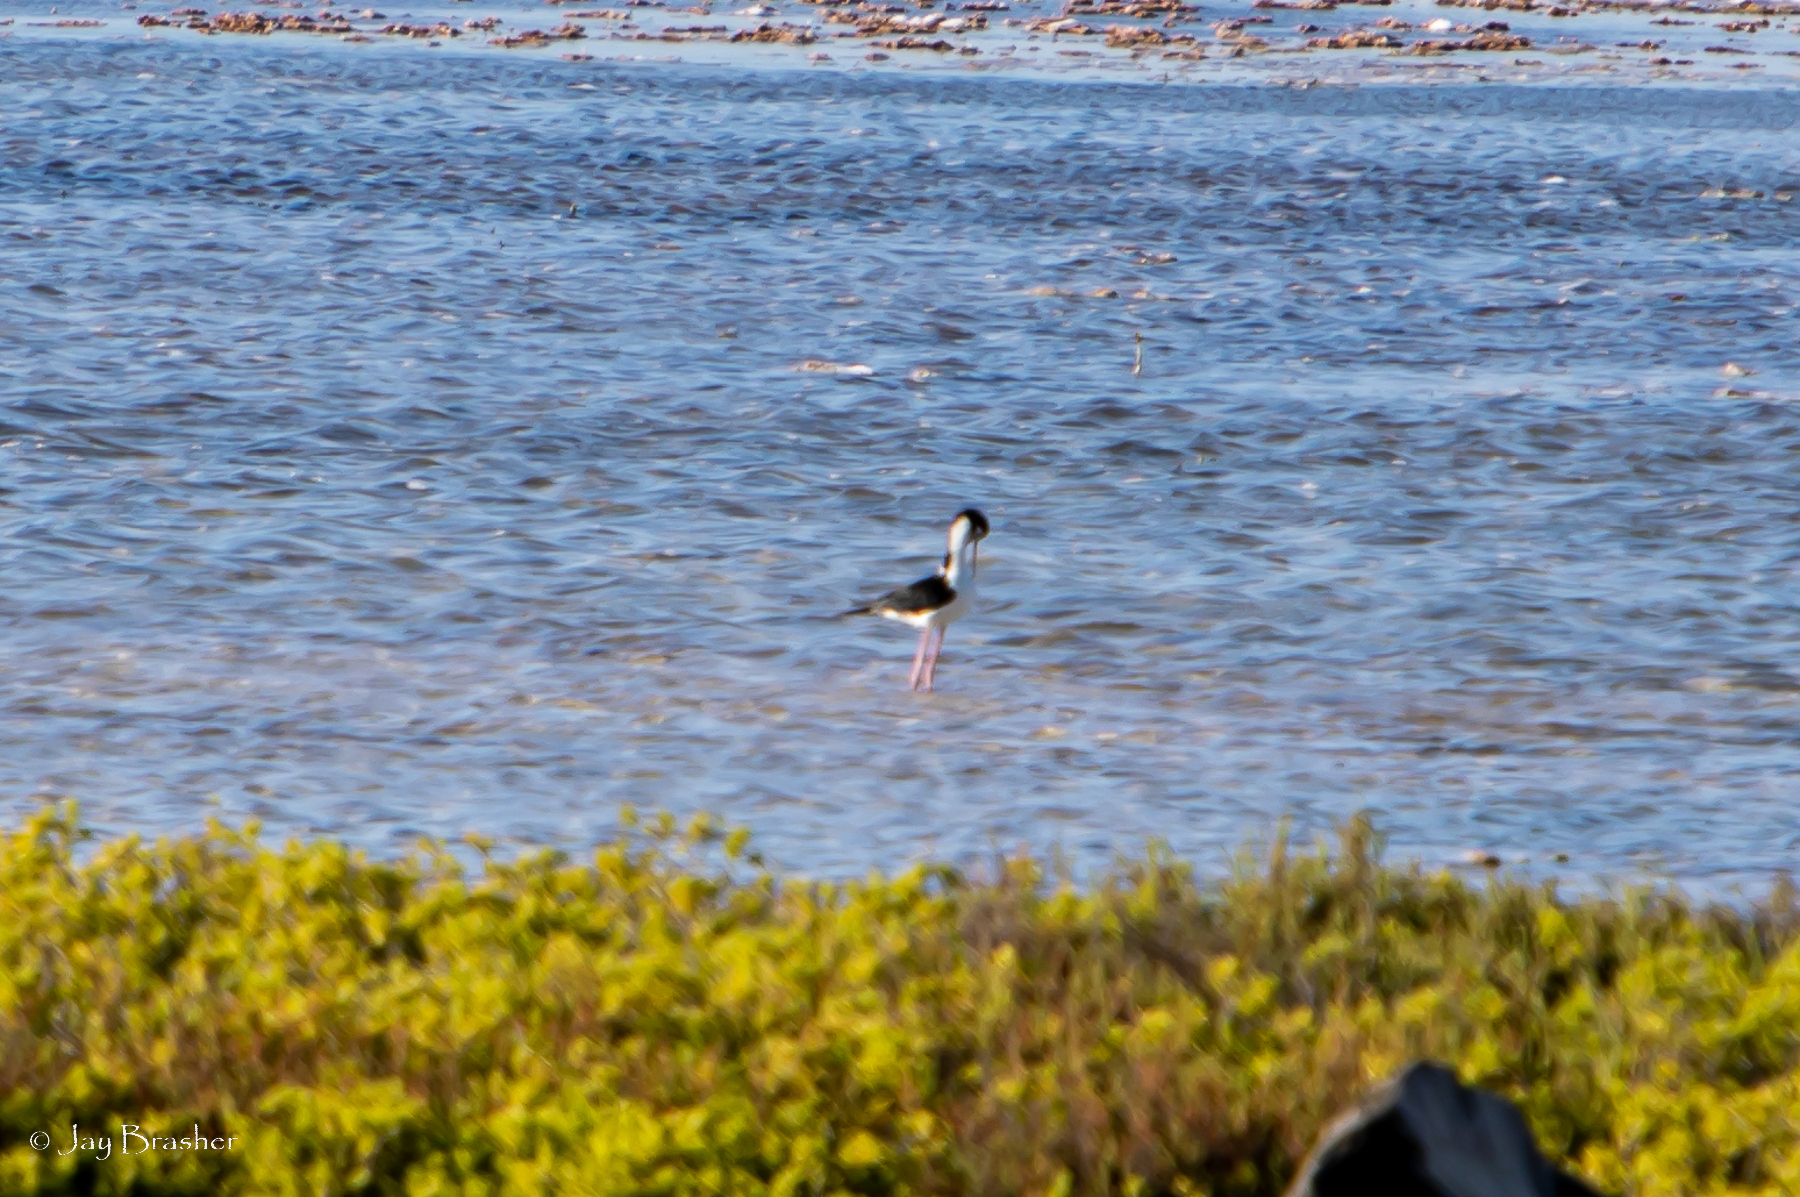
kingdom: Animalia
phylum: Chordata
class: Aves
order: Charadriiformes
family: Recurvirostridae
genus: Himantopus
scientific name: Himantopus mexicanus
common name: Black-necked stilt
